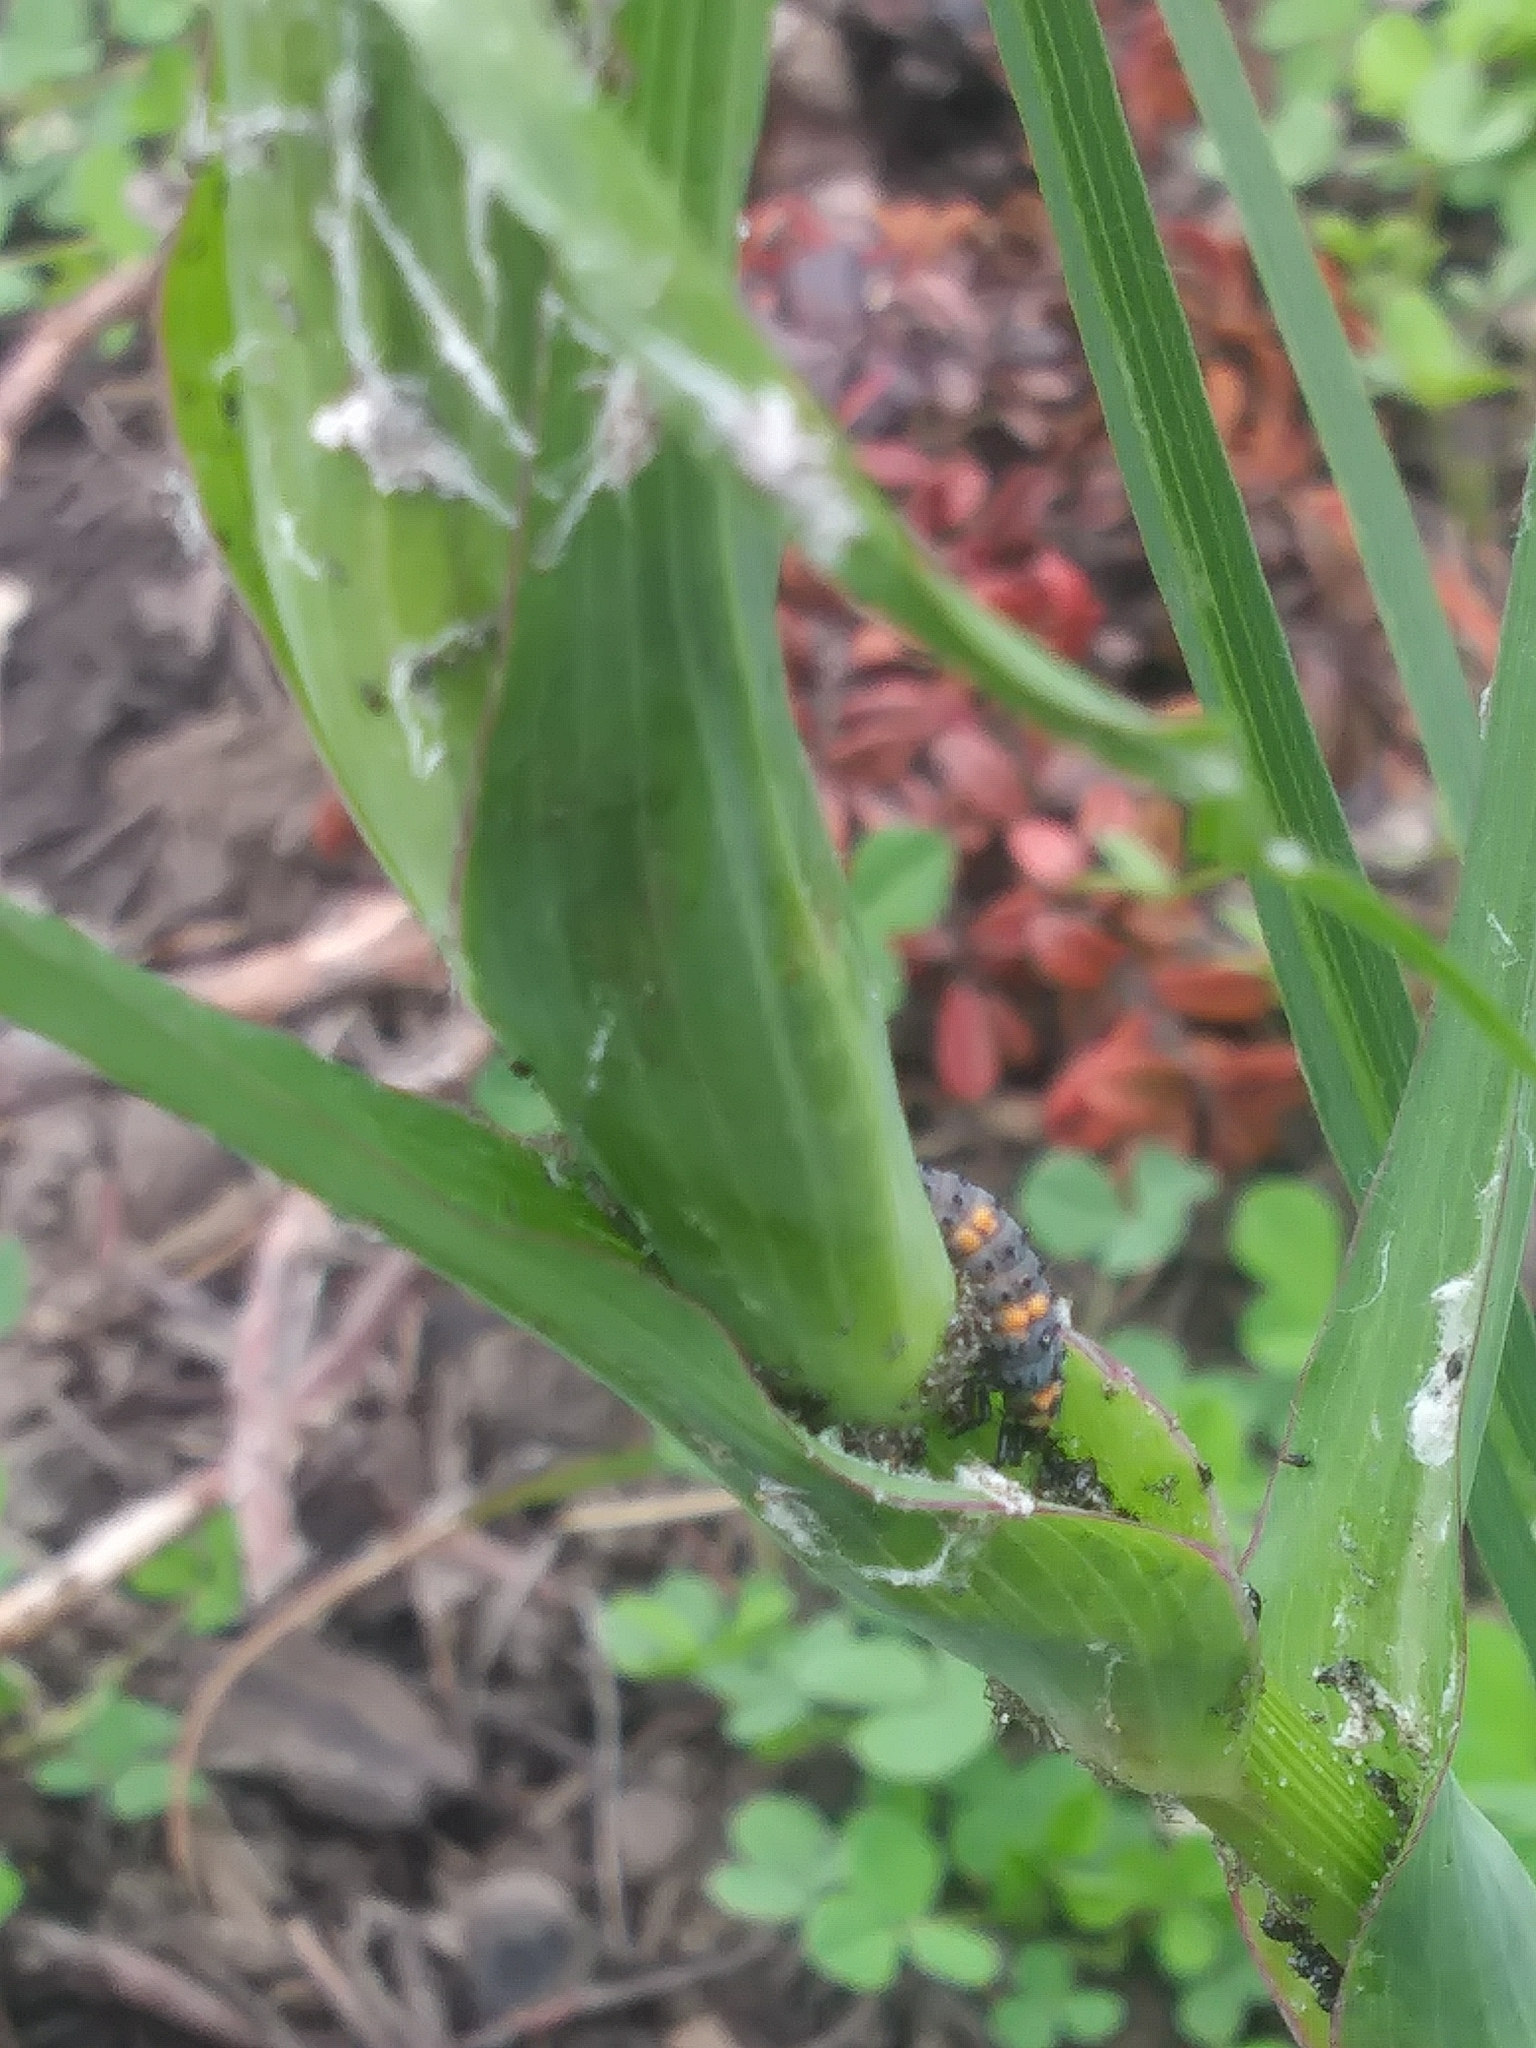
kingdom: Animalia
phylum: Arthropoda
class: Insecta
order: Coleoptera
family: Coccinellidae
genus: Harmonia
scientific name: Harmonia axyridis
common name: Harlequin ladybird
